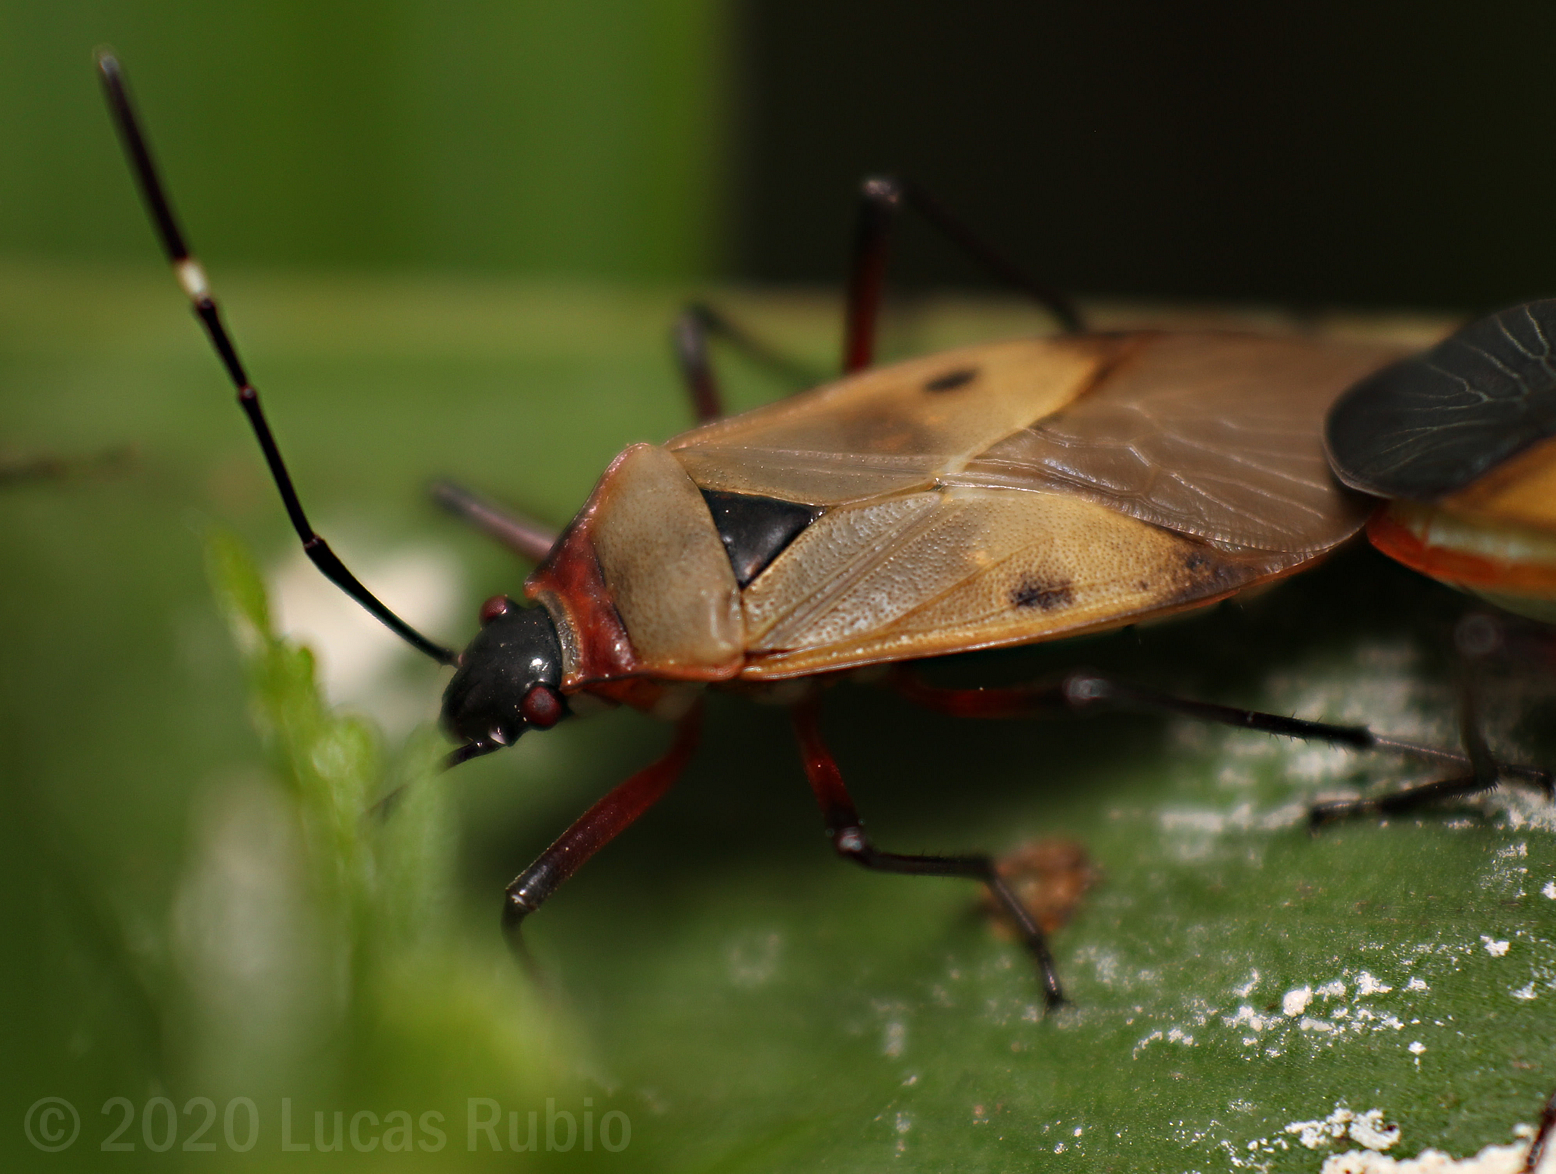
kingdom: Animalia
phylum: Arthropoda
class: Insecta
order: Hemiptera
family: Pyrrhocoridae
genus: Dysdercus
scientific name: Dysdercus
